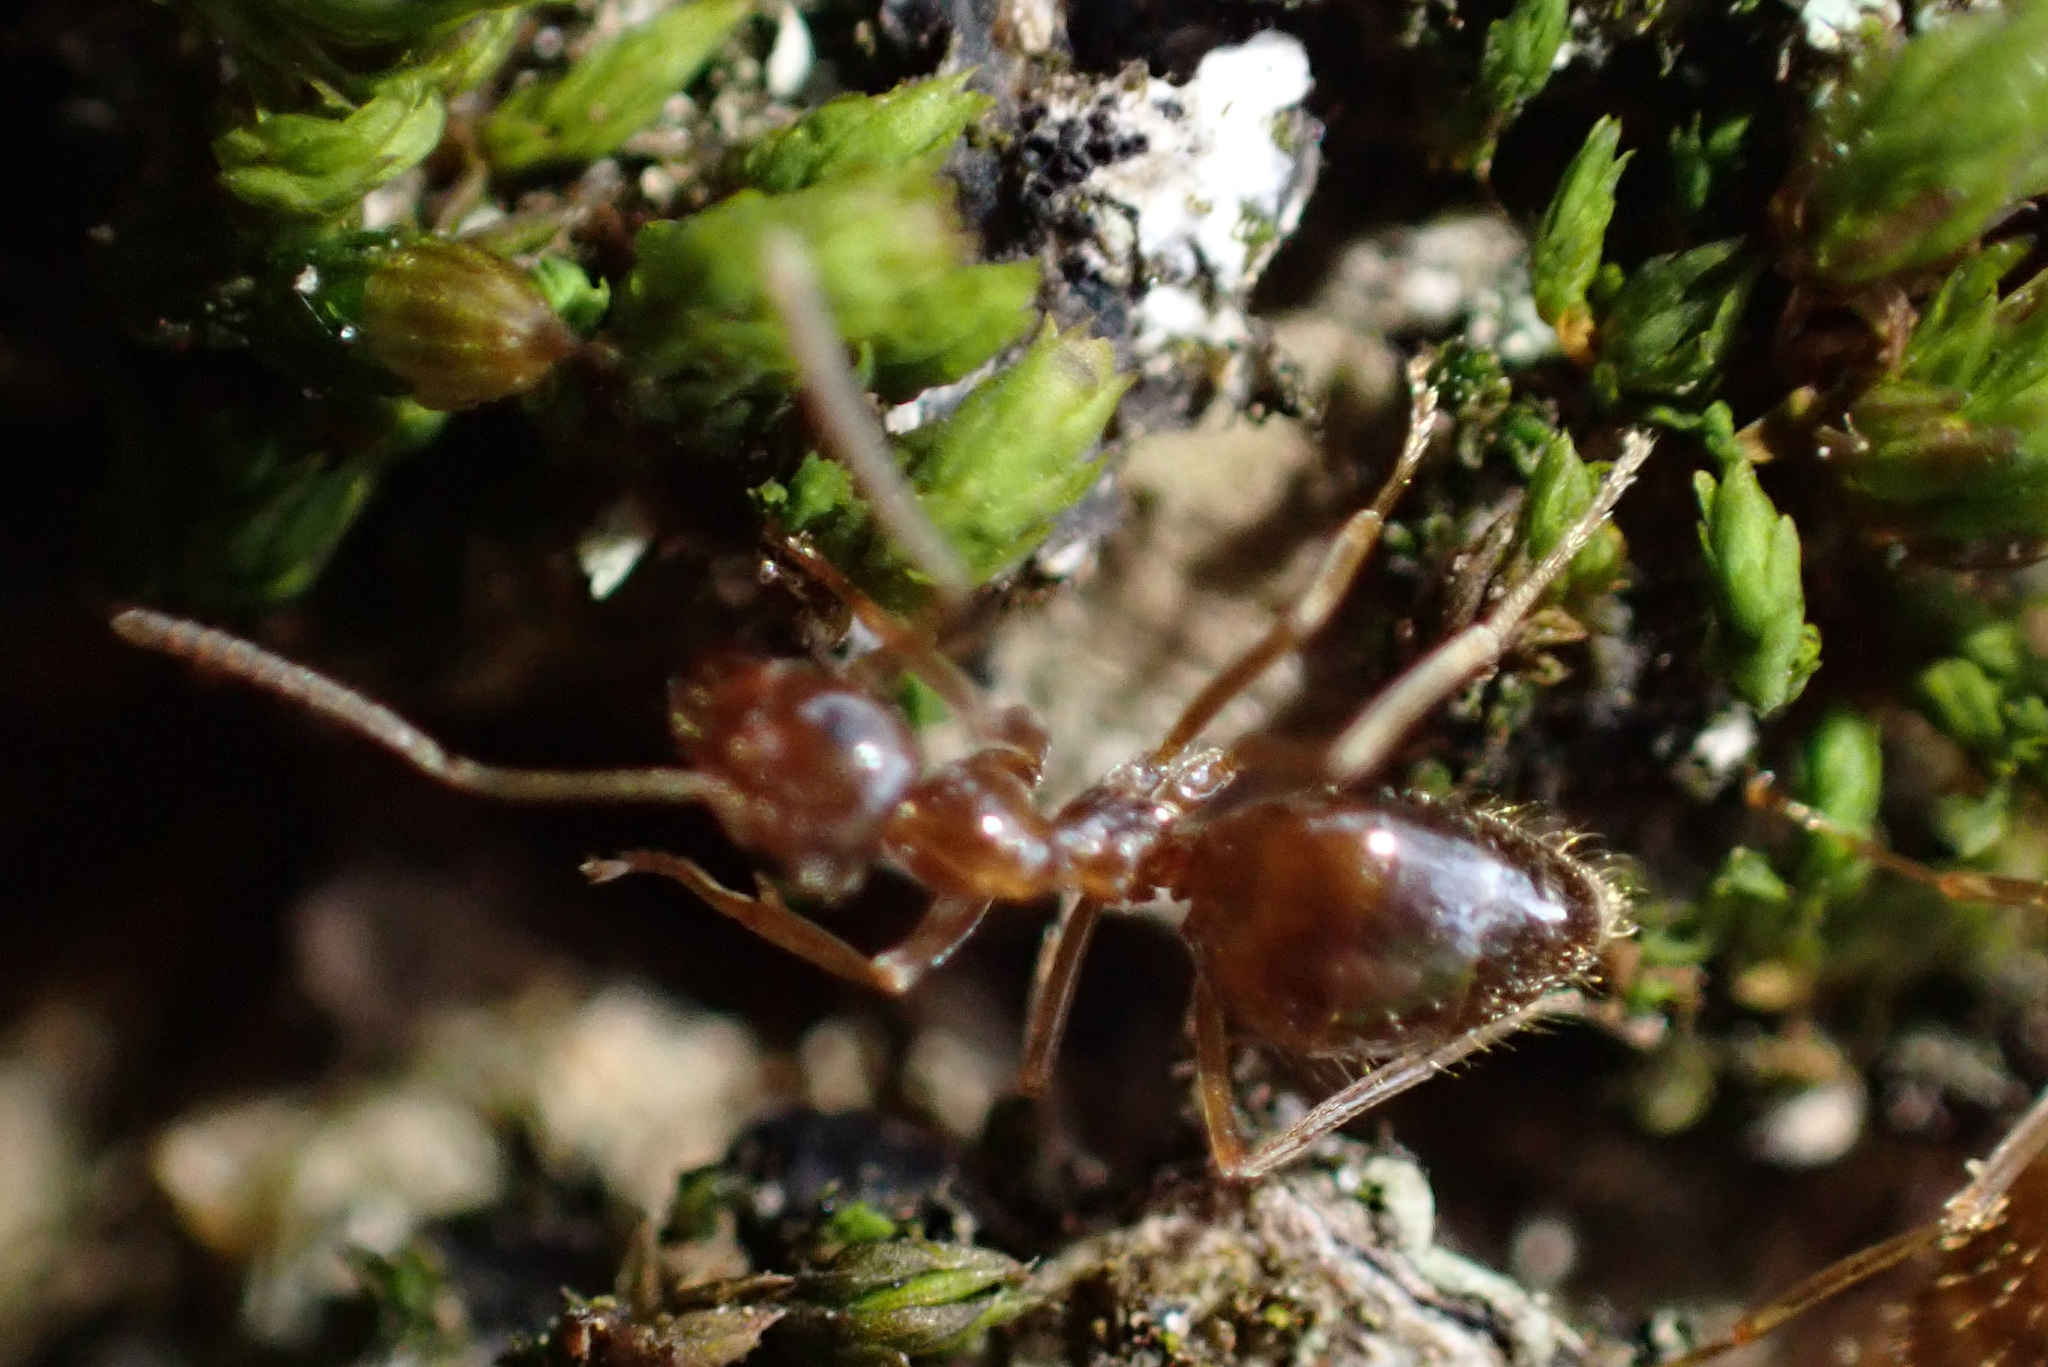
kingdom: Animalia
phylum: Arthropoda
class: Insecta
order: Hymenoptera
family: Formicidae
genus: Prenolepis
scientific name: Prenolepis nitens
